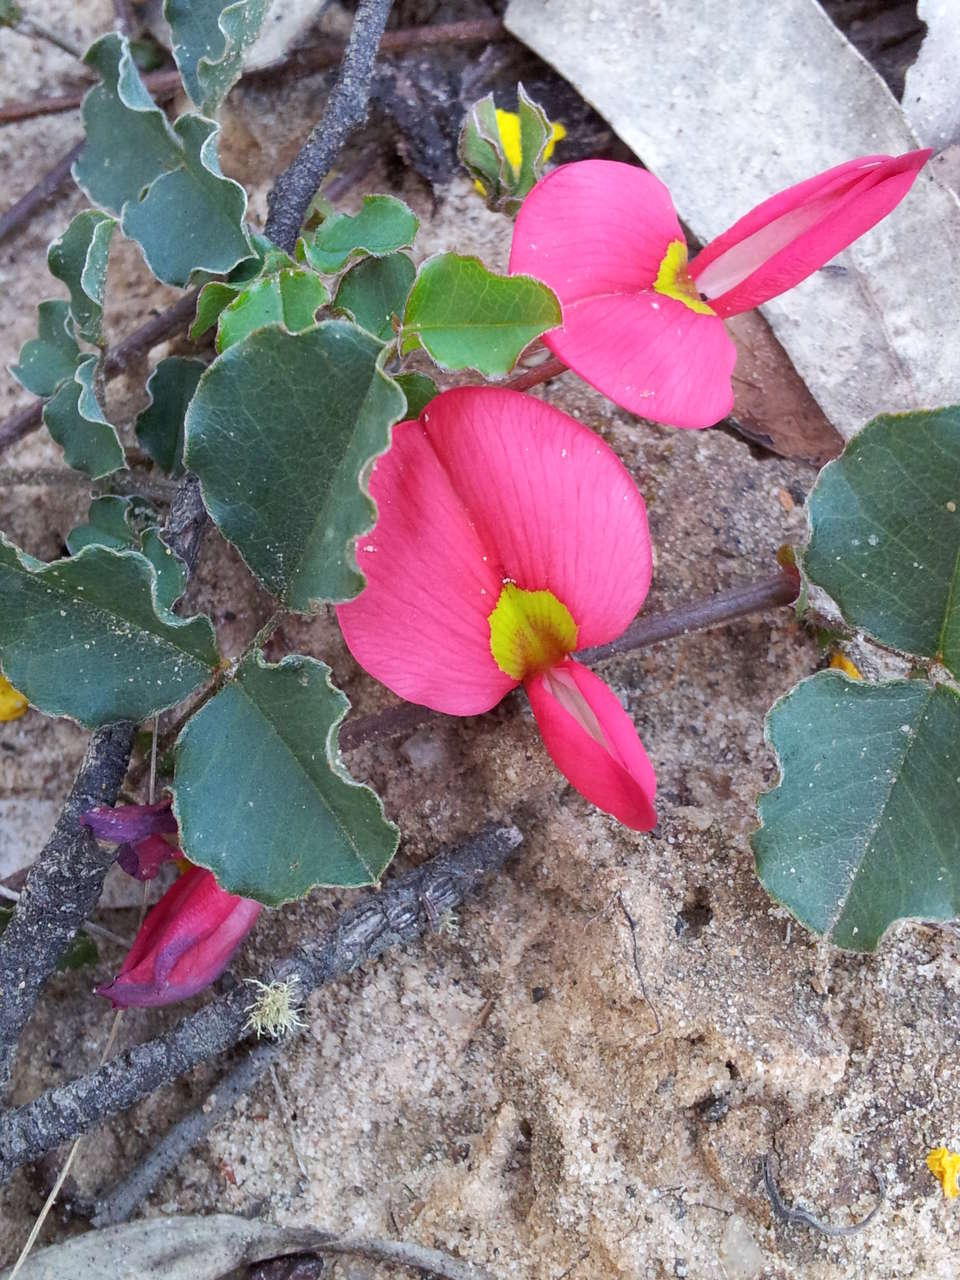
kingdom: Plantae
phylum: Tracheophyta
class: Magnoliopsida
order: Fabales
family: Fabaceae
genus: Kennedia
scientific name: Kennedia prostrata
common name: Running-postman
